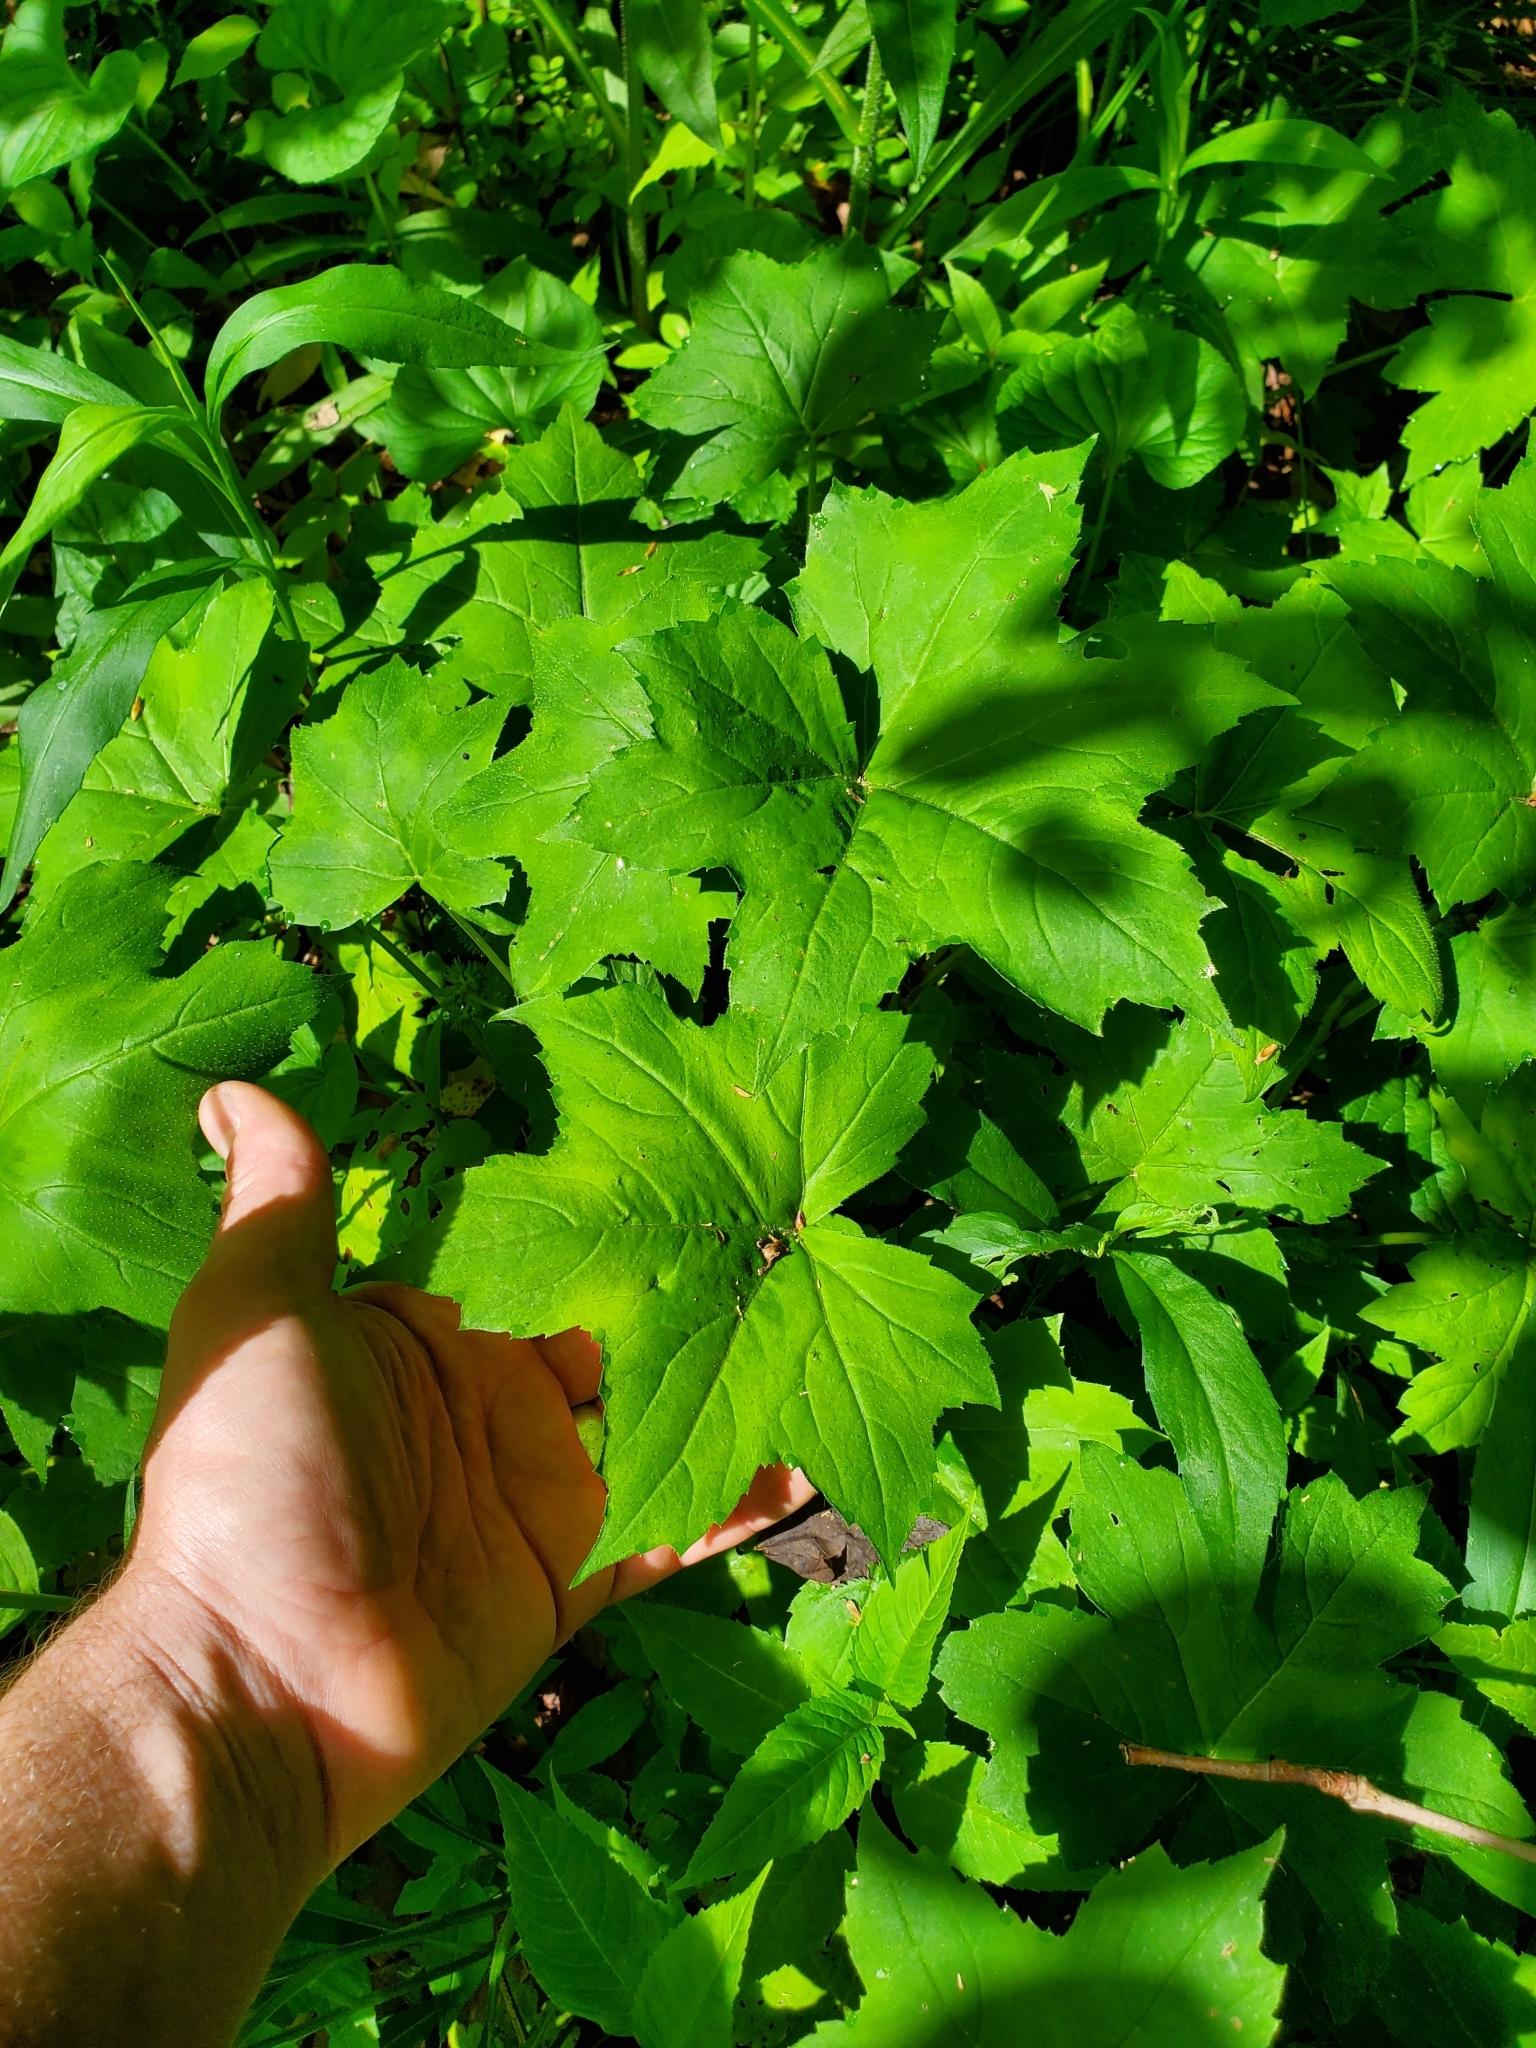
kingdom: Plantae
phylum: Tracheophyta
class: Magnoliopsida
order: Boraginales
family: Hydrophyllaceae
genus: Hydrophyllum
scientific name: Hydrophyllum canadense
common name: Canada waterleaf
